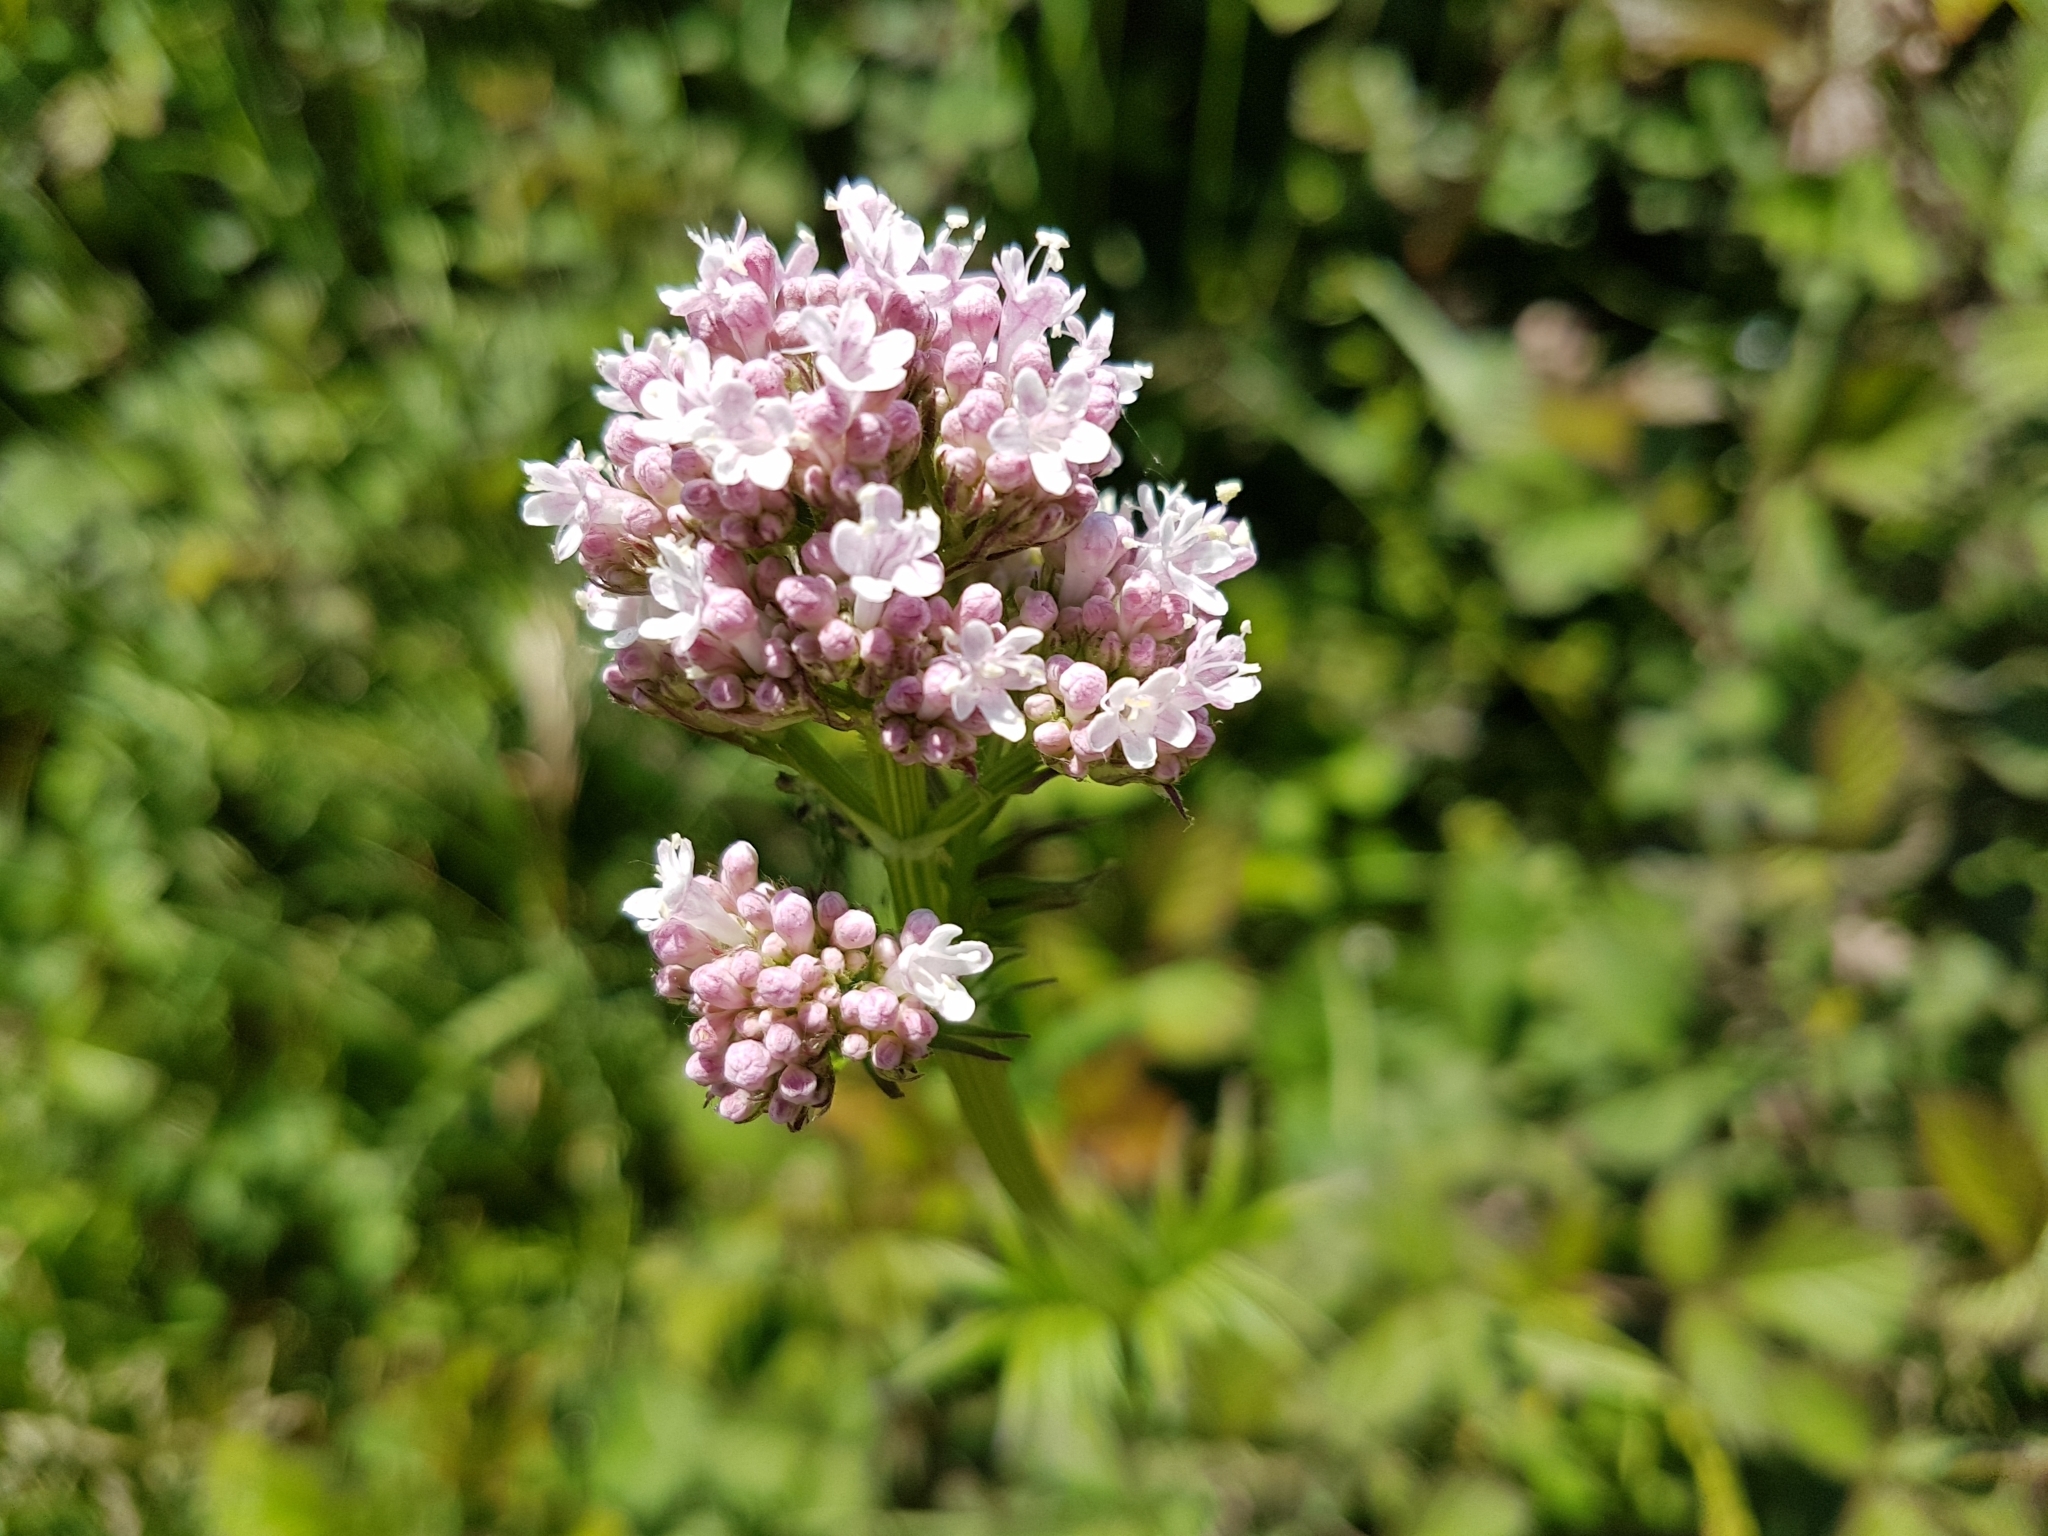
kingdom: Plantae
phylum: Tracheophyta
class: Magnoliopsida
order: Dipsacales
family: Caprifoliaceae
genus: Valeriana
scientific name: Valeriana officinalis
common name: Common valerian
